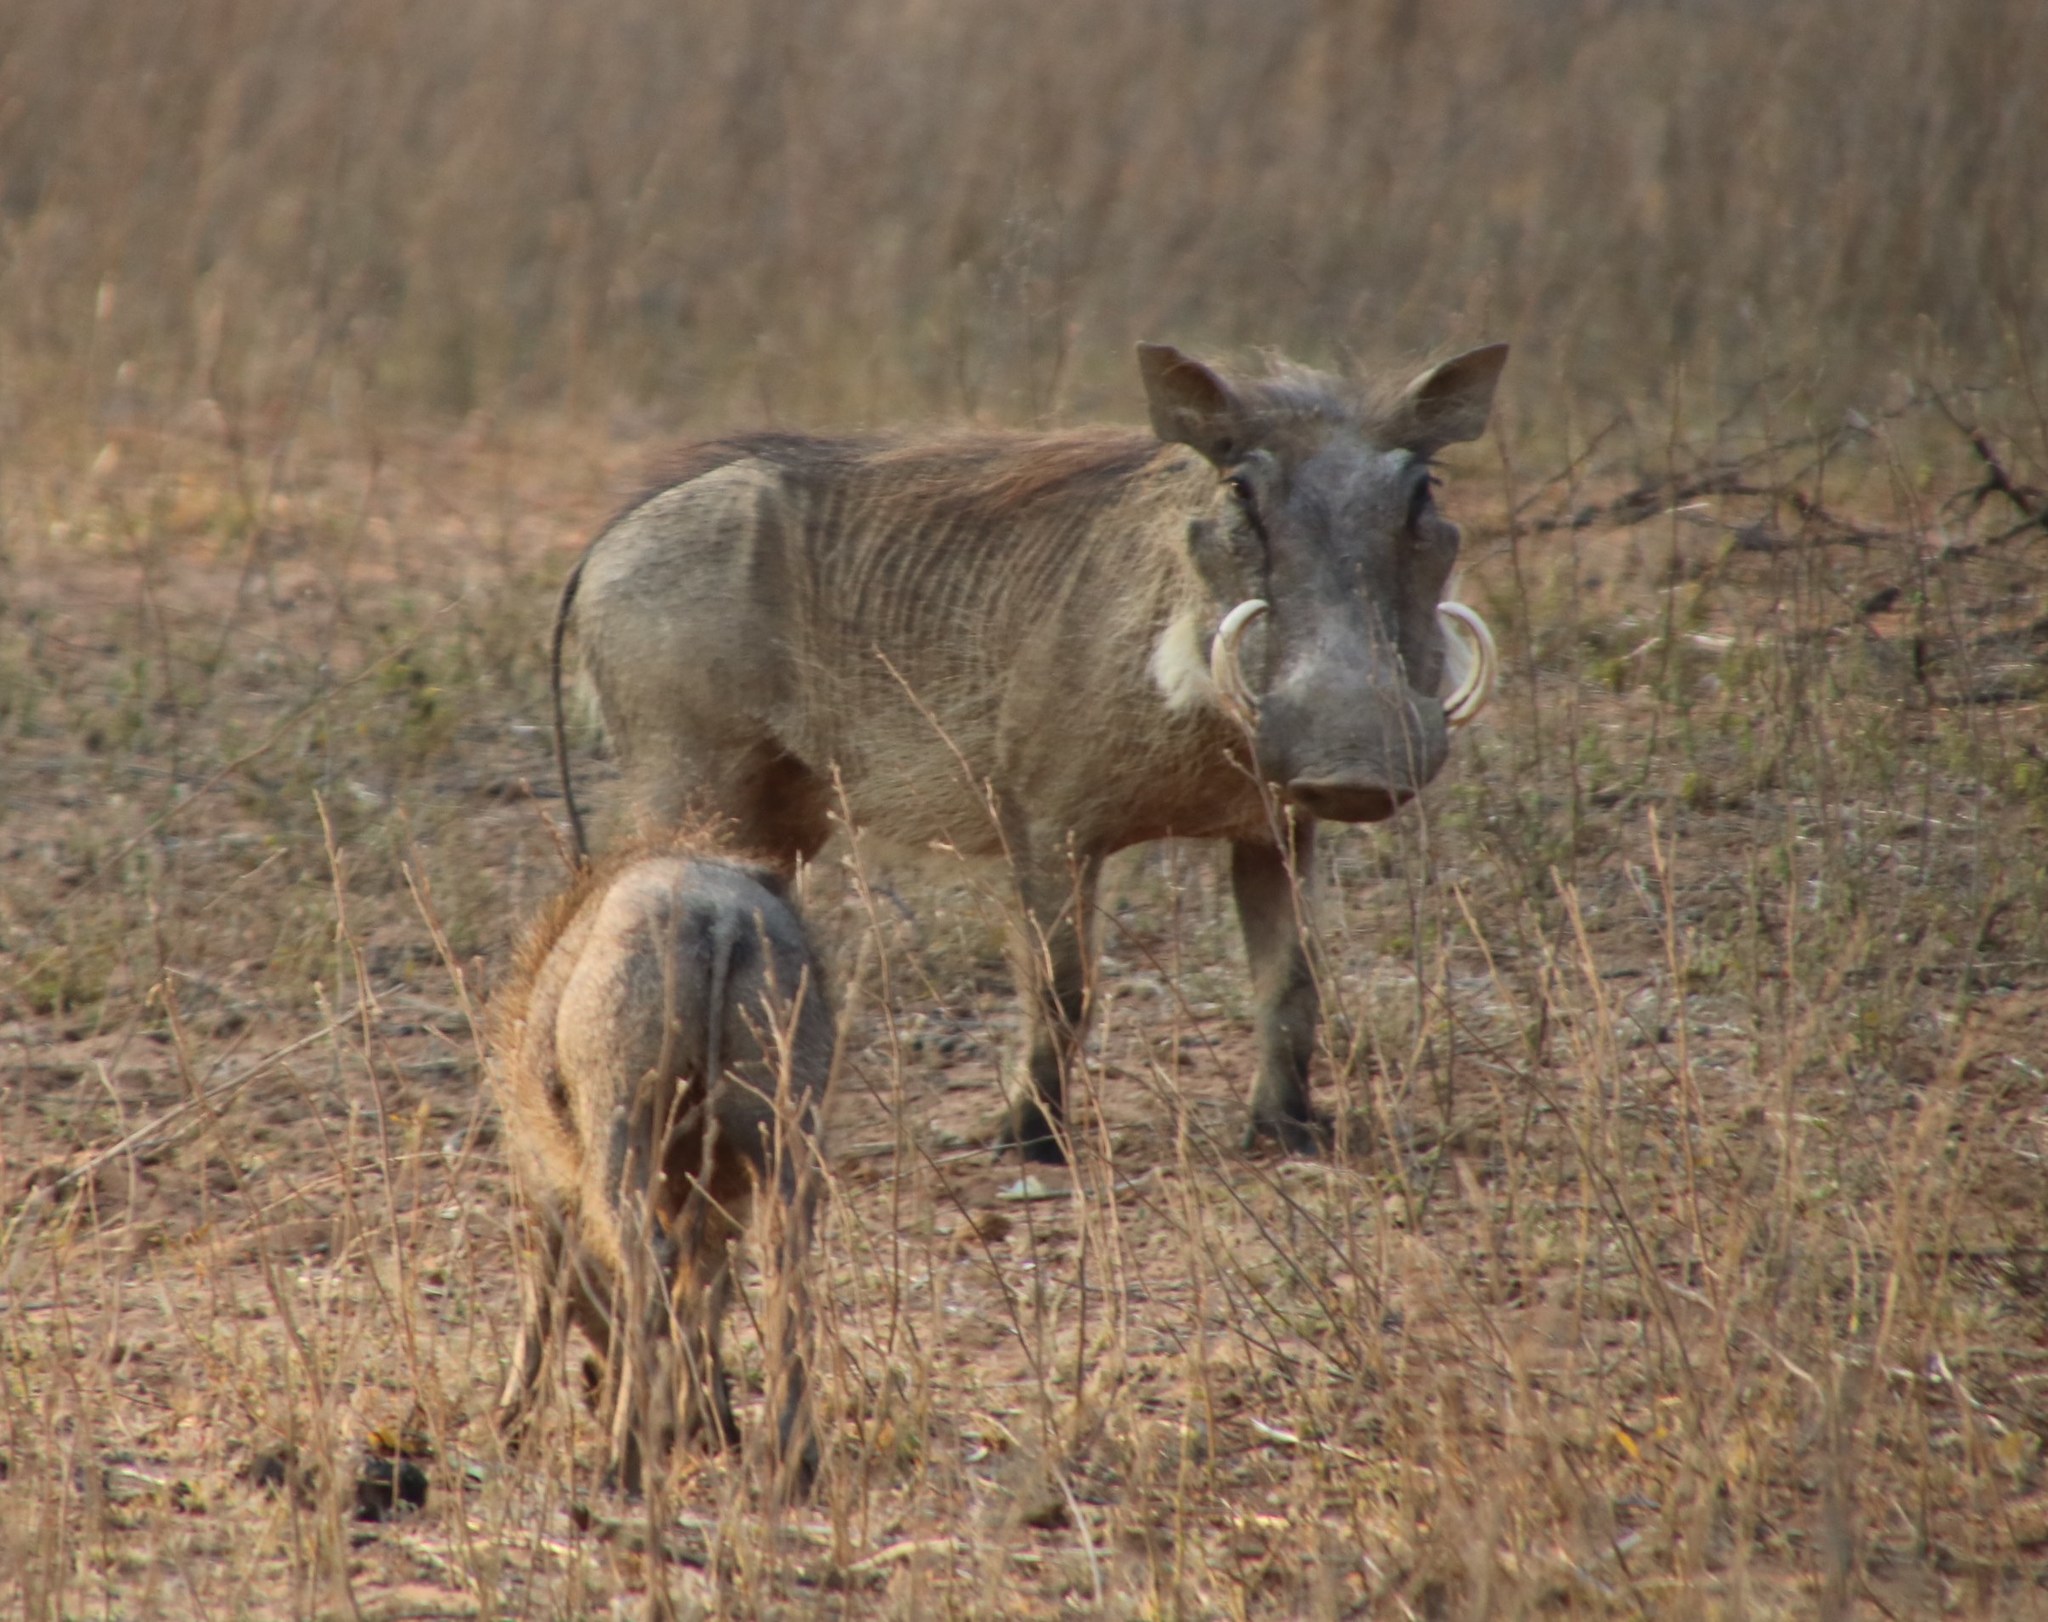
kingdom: Animalia
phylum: Chordata
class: Mammalia
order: Artiodactyla
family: Suidae
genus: Phacochoerus
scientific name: Phacochoerus africanus
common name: Common warthog
